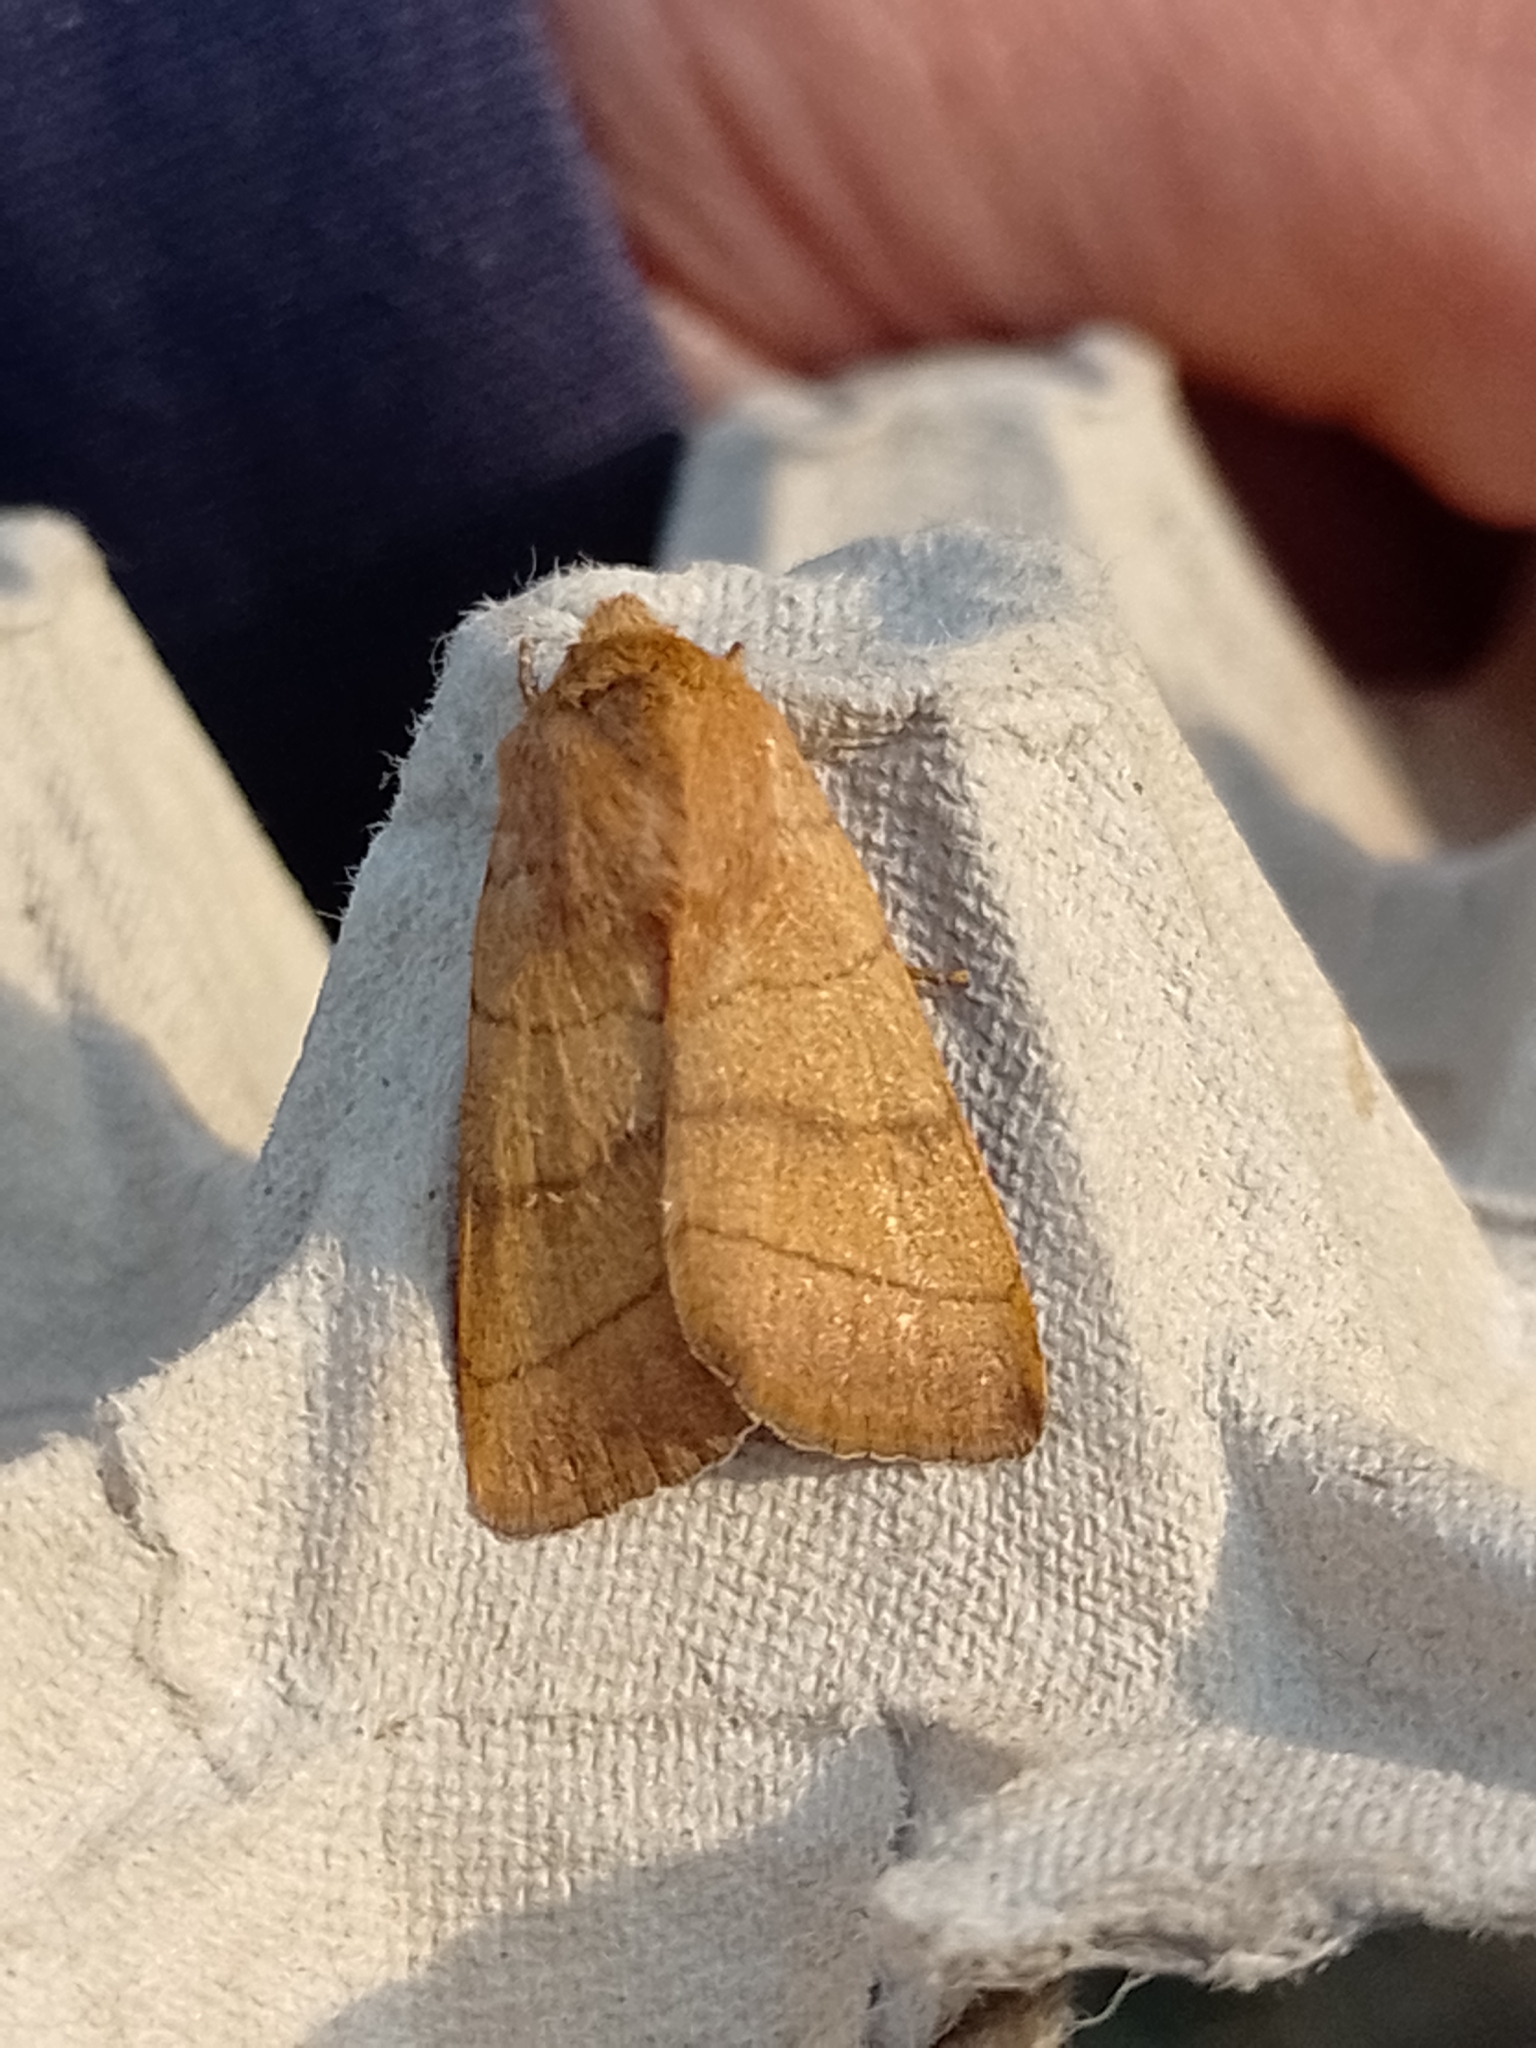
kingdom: Animalia
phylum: Arthropoda
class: Insecta
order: Lepidoptera
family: Noctuidae
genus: Charanyca
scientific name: Charanyca trigrammica
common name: Treble lines
